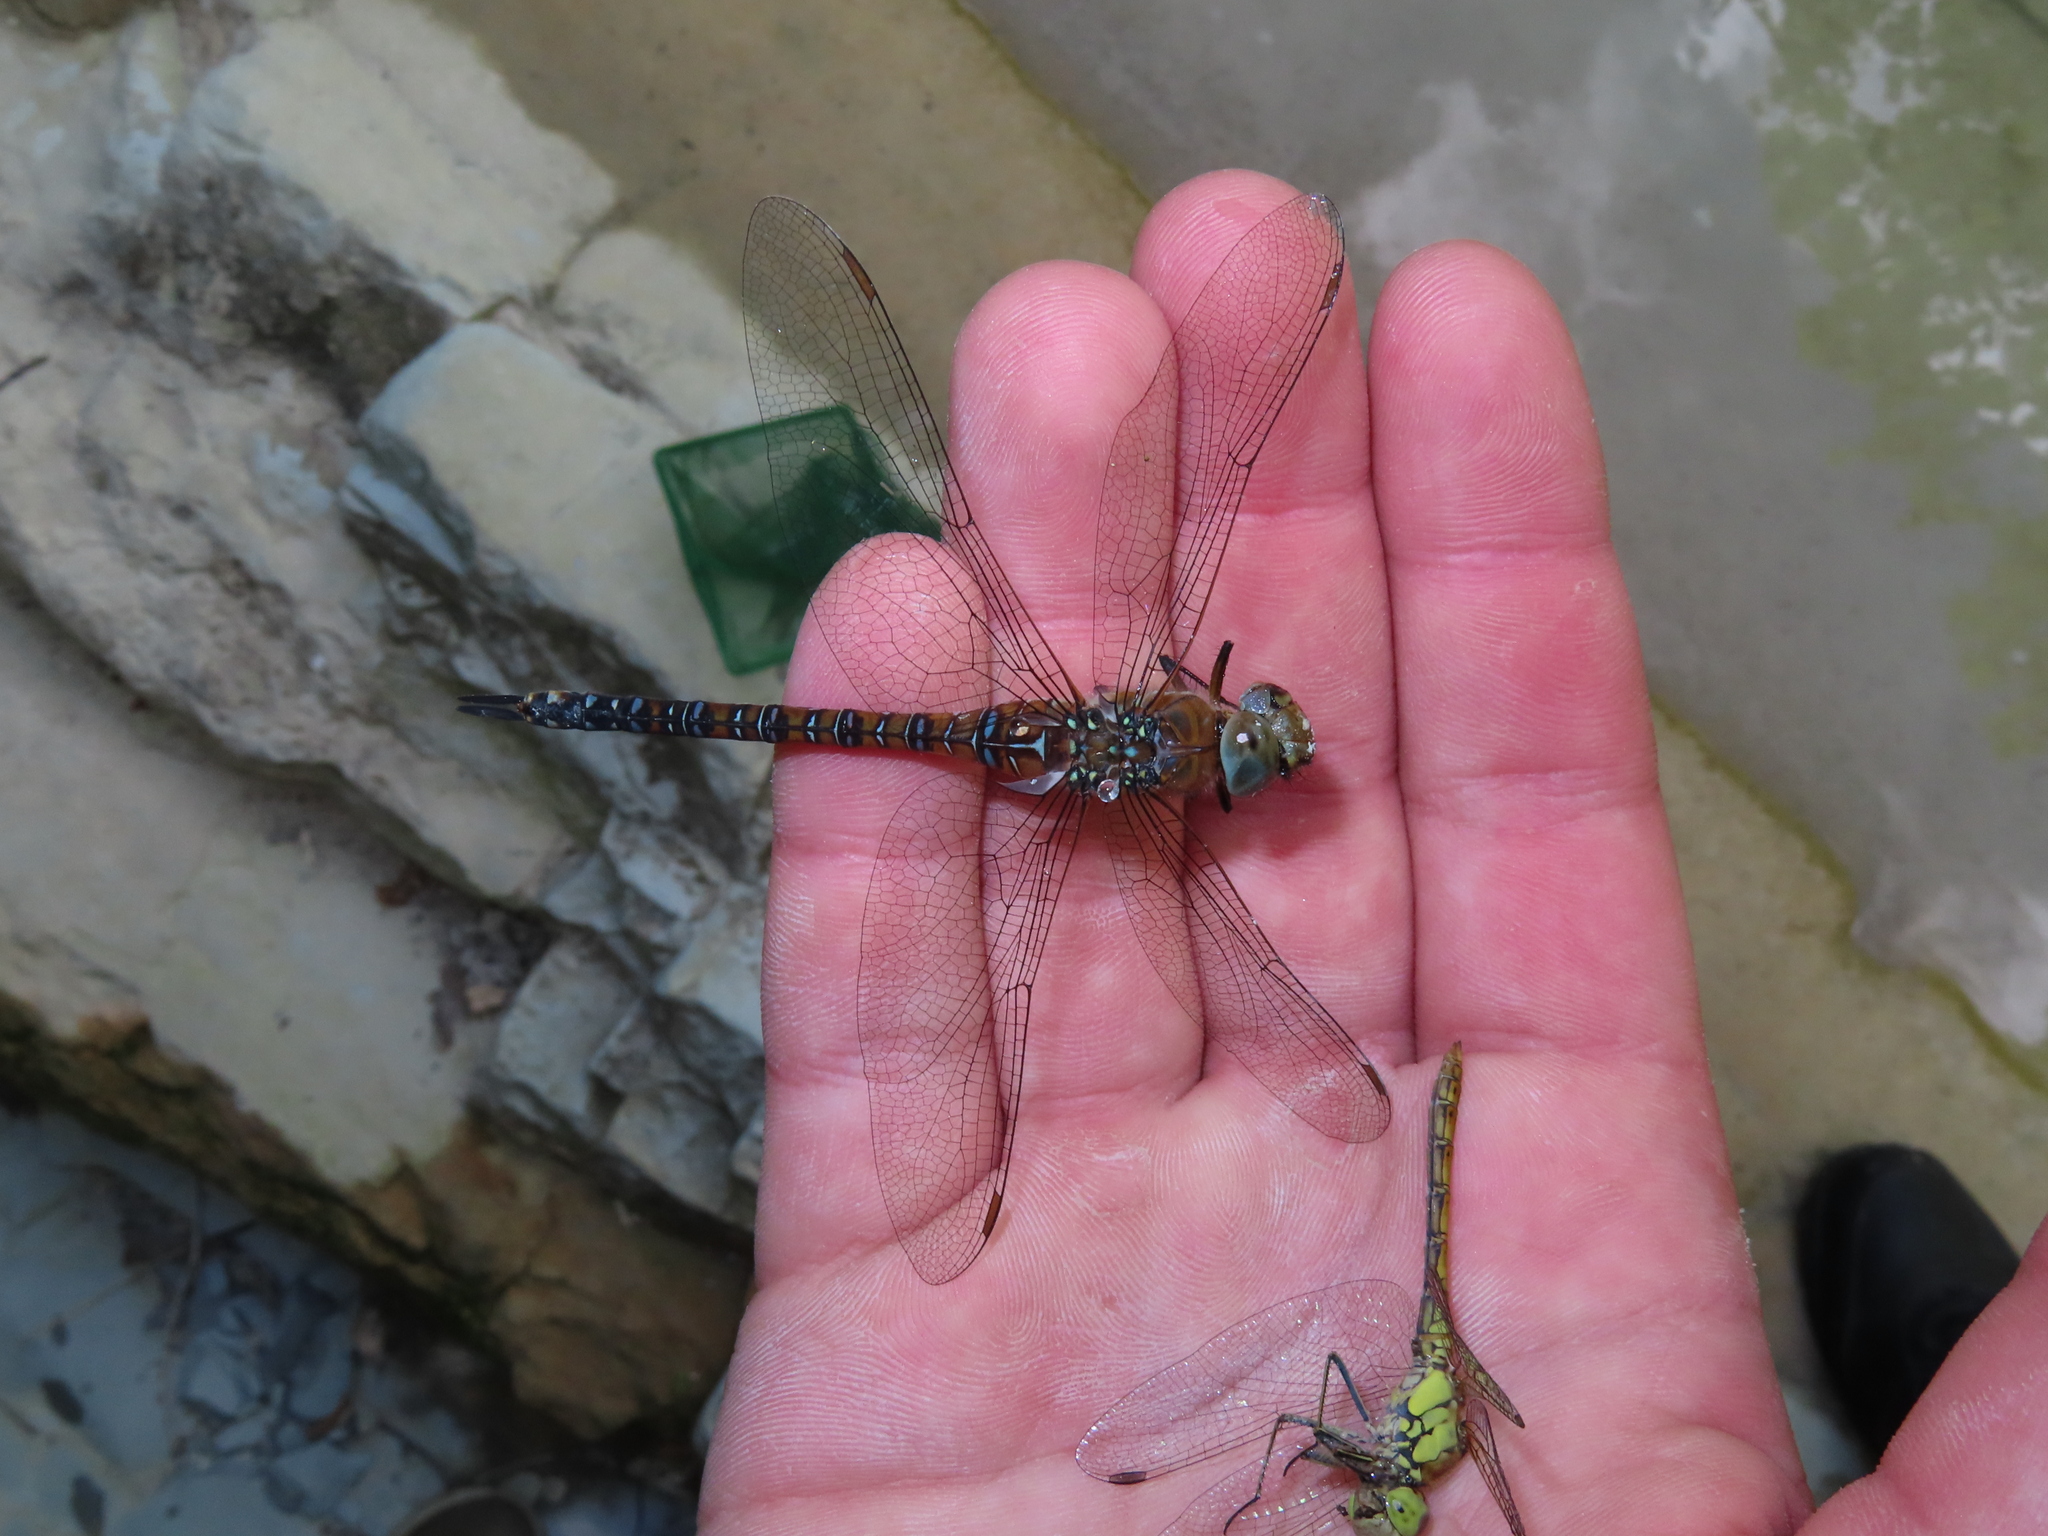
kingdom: Animalia
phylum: Arthropoda
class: Insecta
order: Odonata
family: Aeshnidae
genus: Aeshna
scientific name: Aeshna mixta
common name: Migrant hawker
